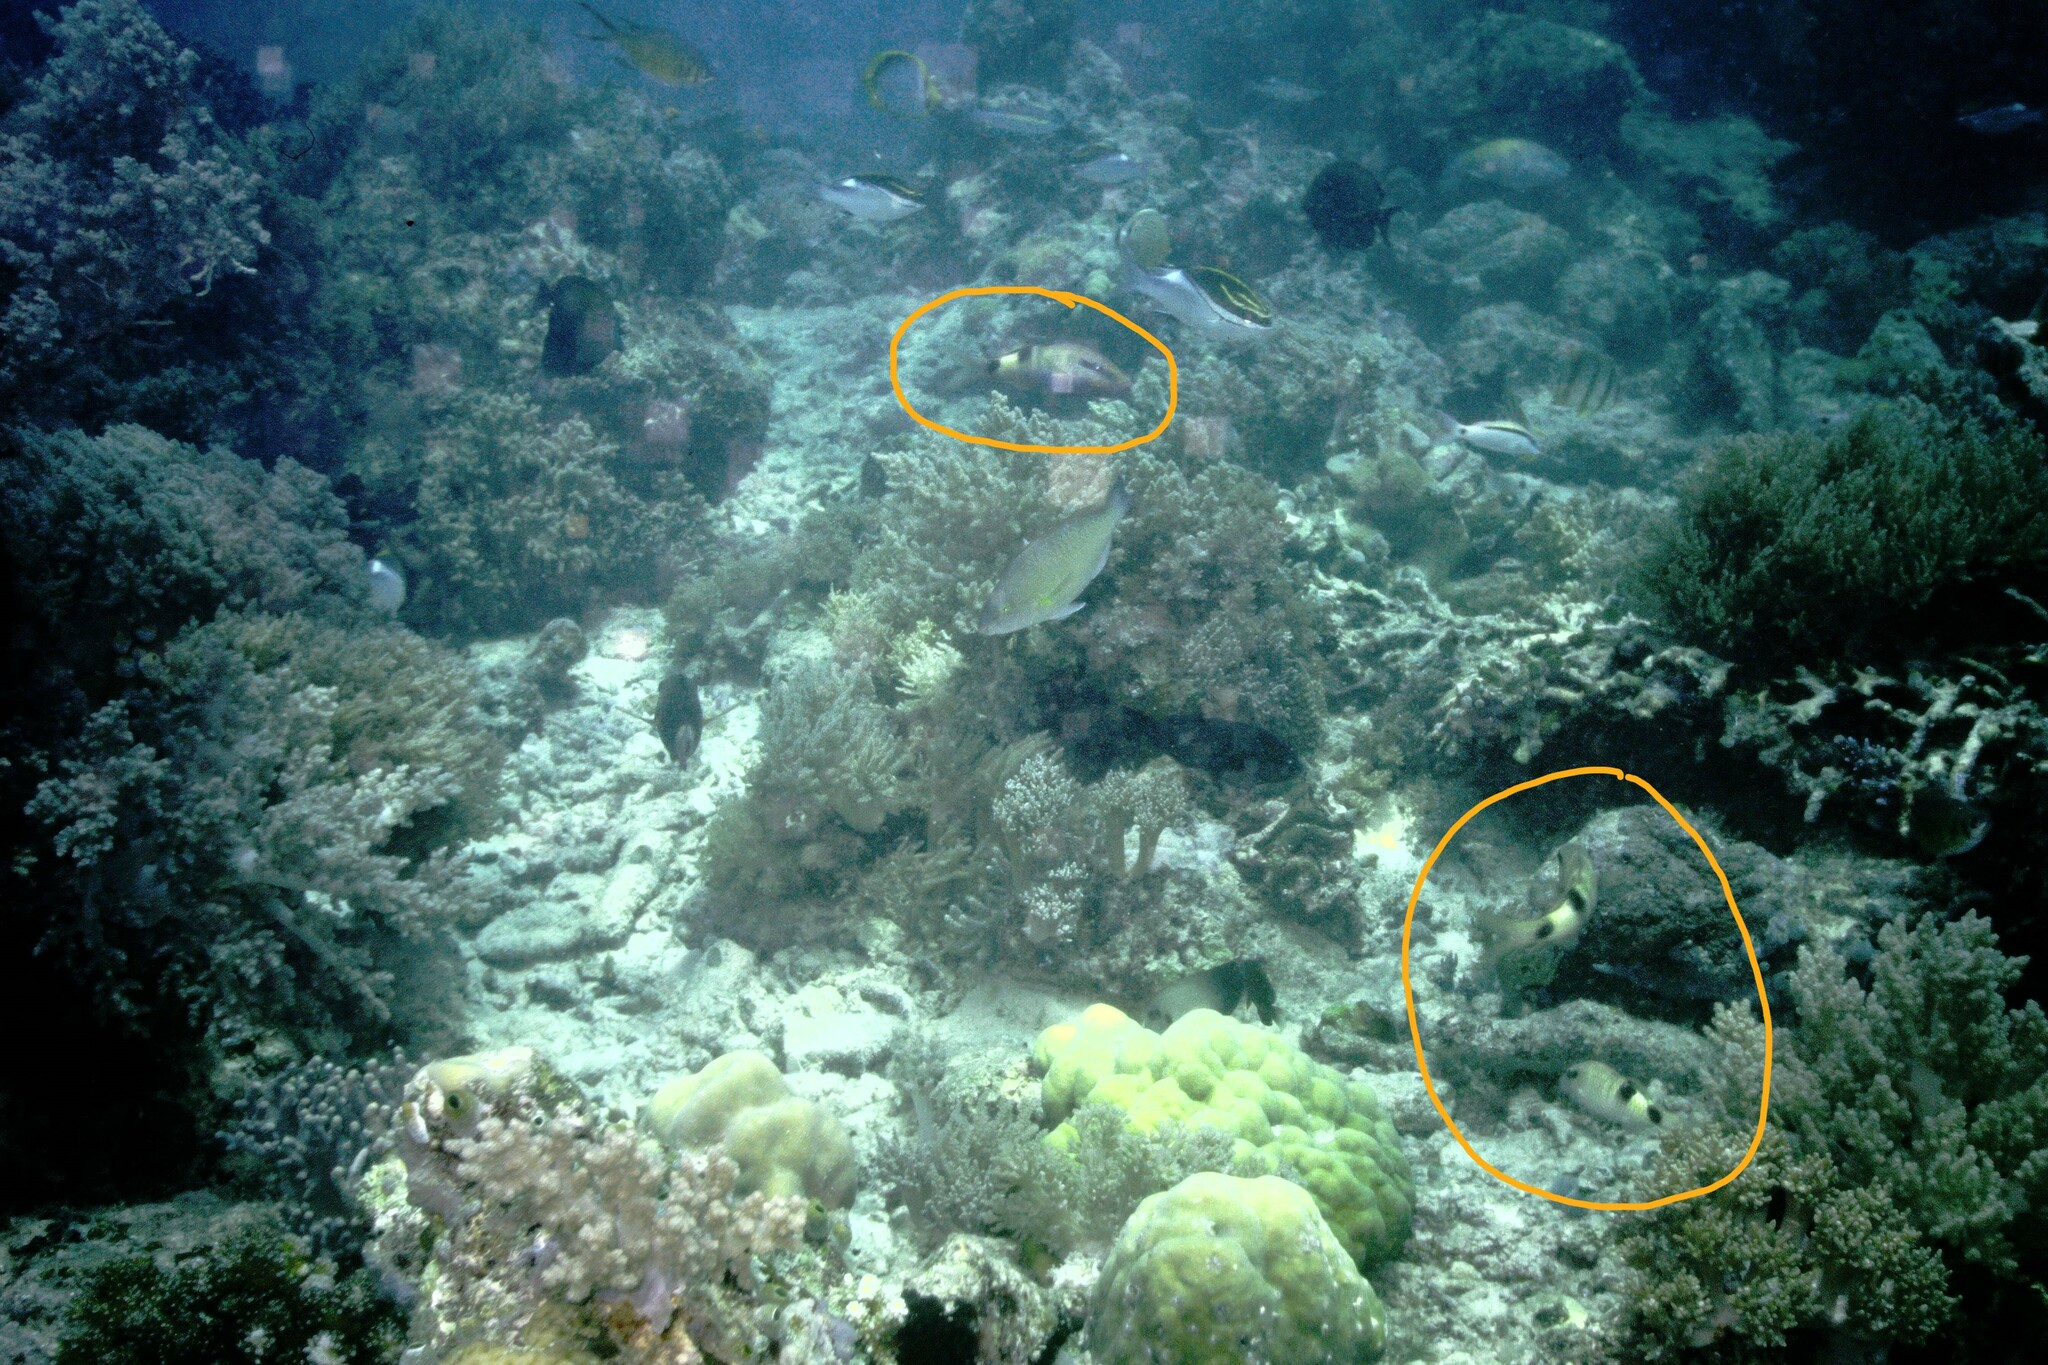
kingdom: Animalia
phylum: Chordata
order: Perciformes
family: Mullidae
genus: Parupeneus
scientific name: Parupeneus multifasciatus
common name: Manybar goatfish
